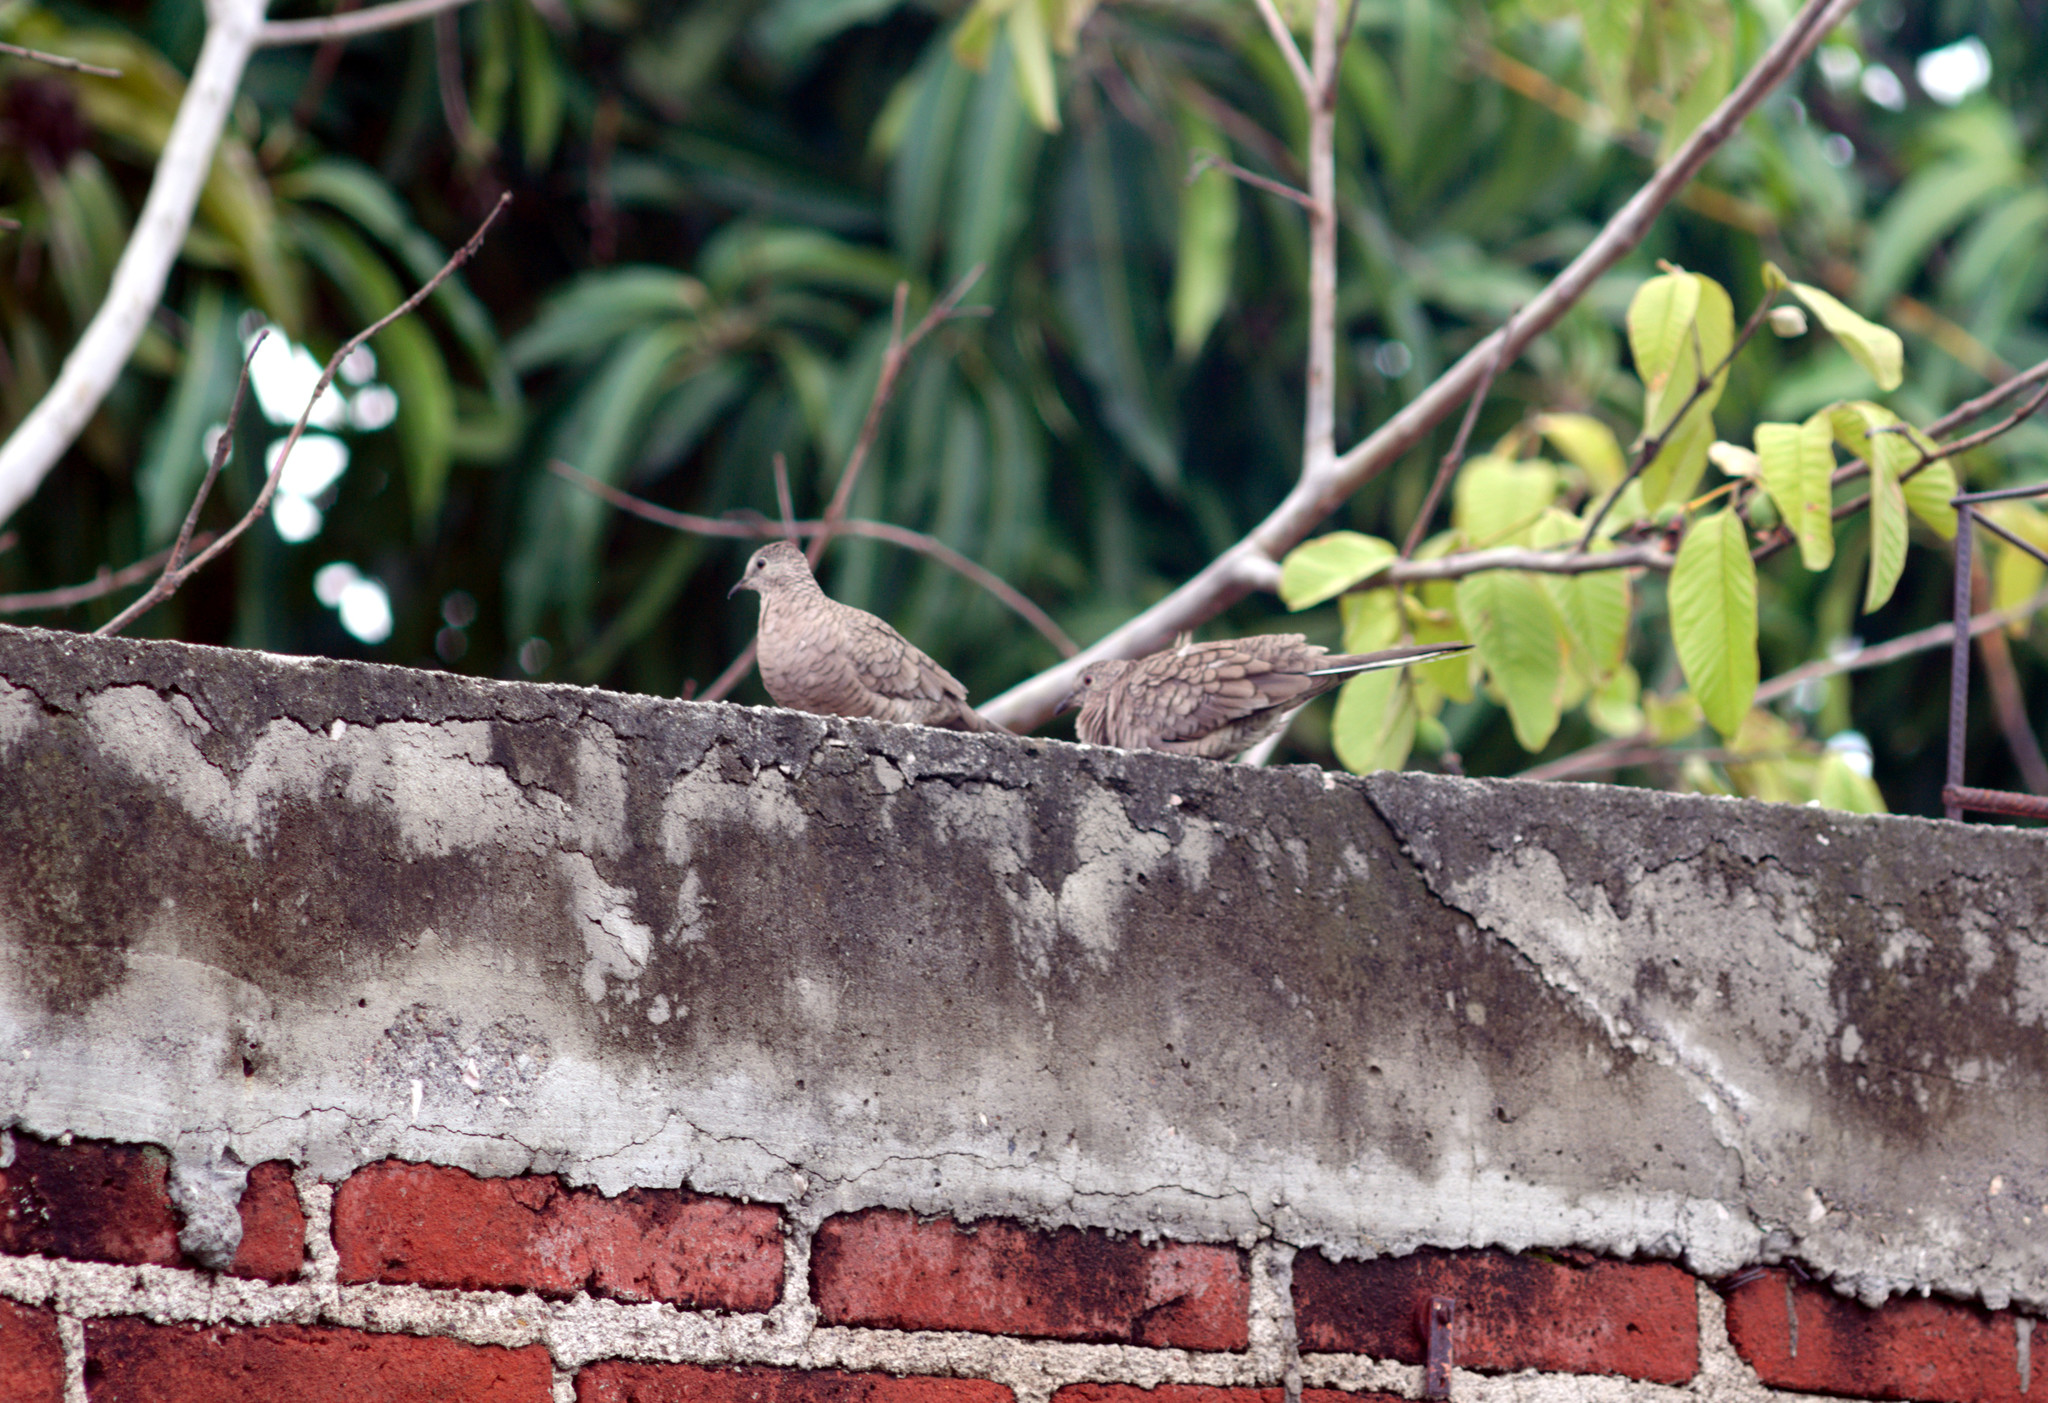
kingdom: Animalia
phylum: Chordata
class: Aves
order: Columbiformes
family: Columbidae
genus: Columbina
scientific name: Columbina inca
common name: Inca dove
